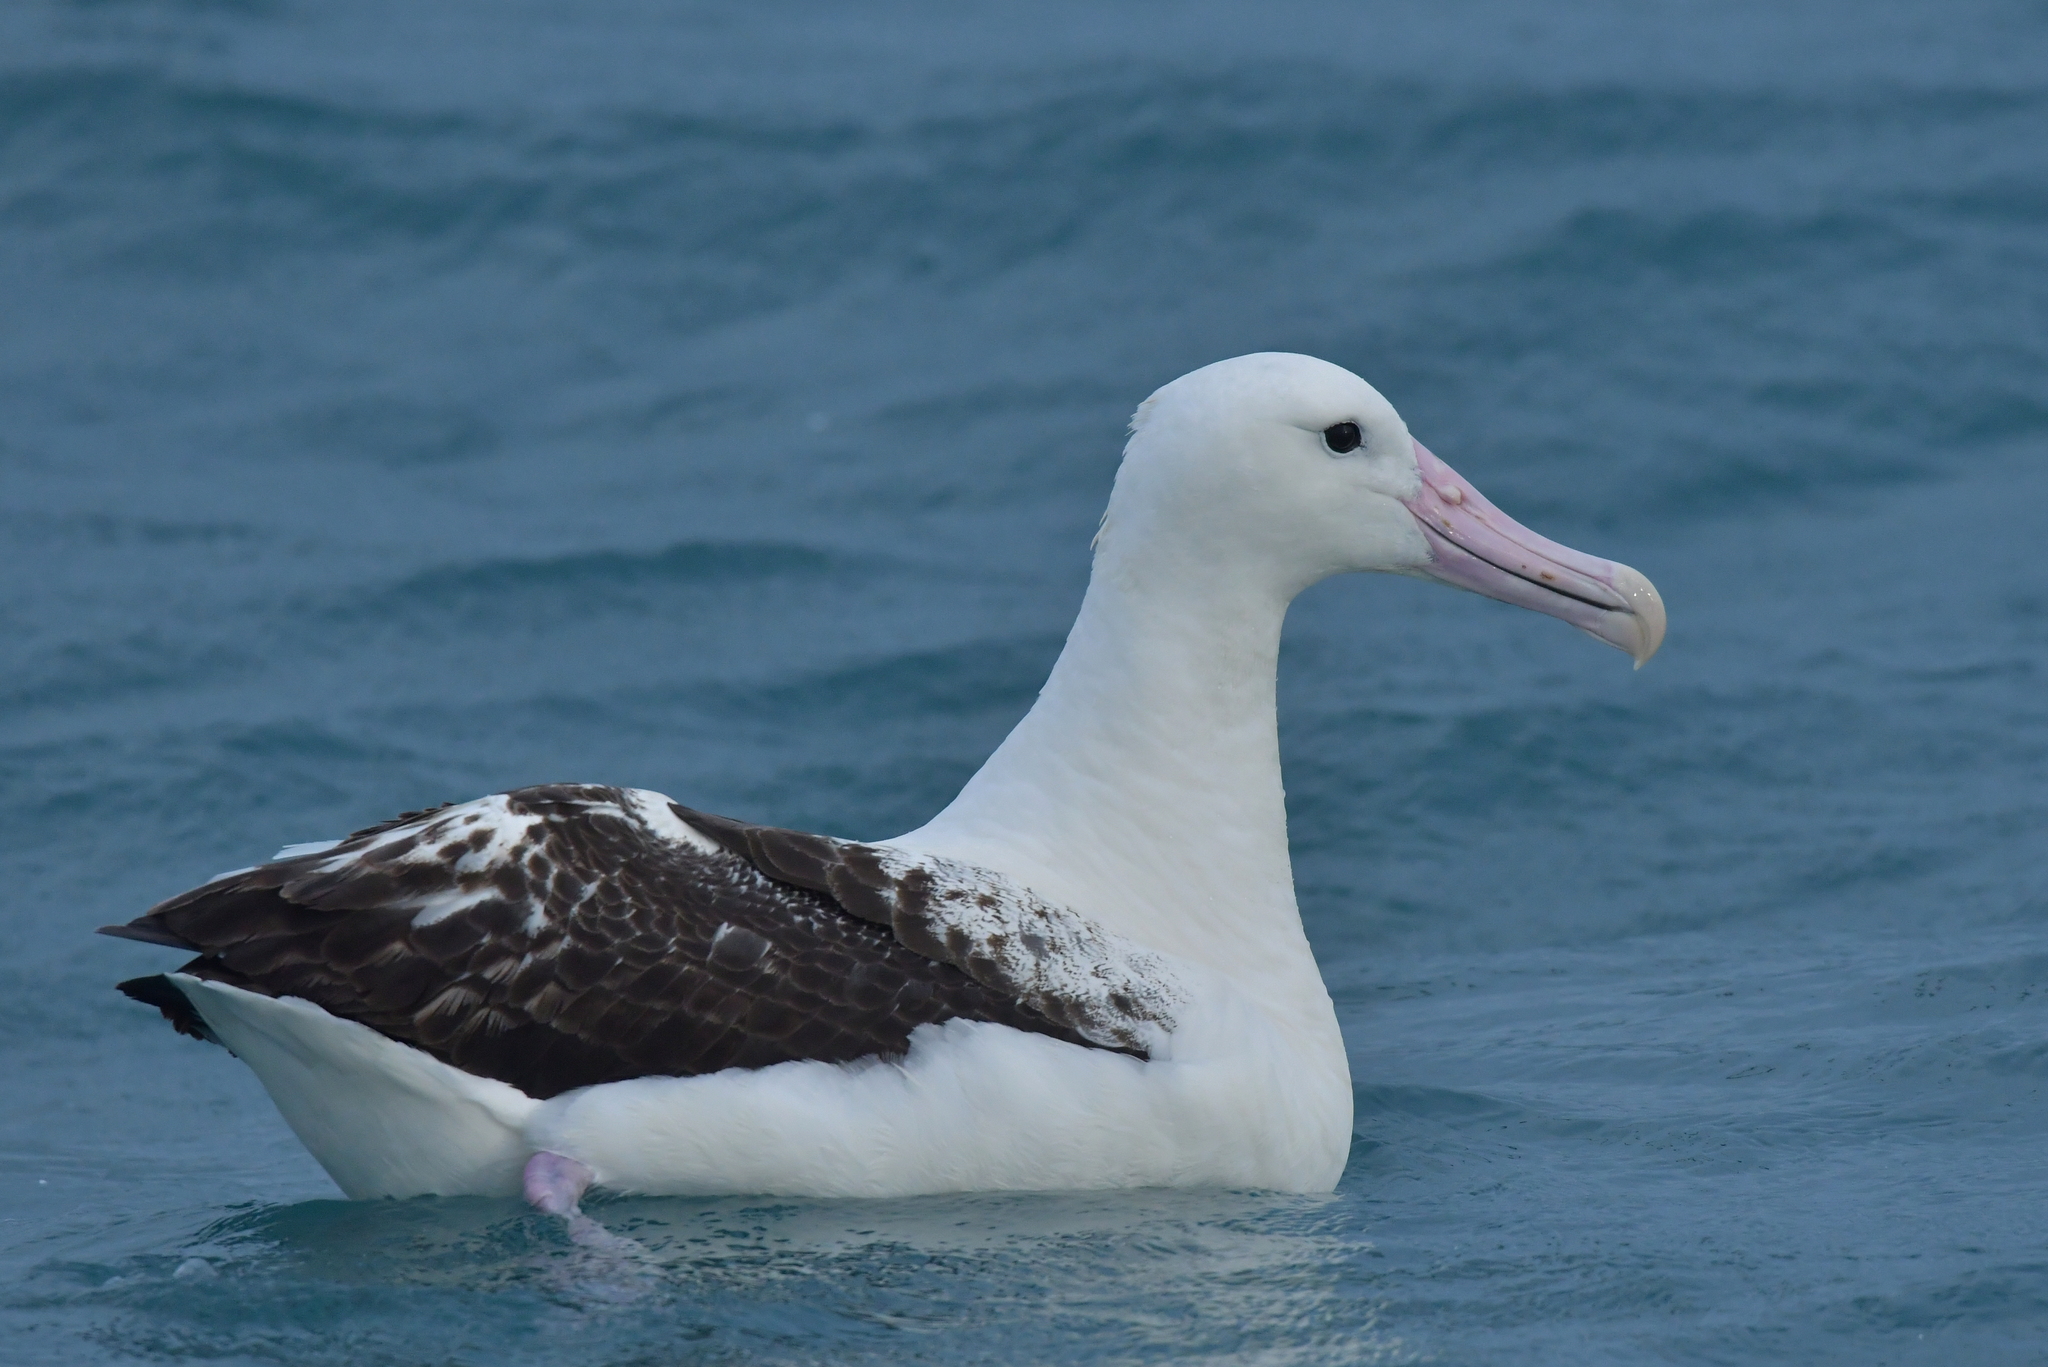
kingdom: Animalia
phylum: Chordata
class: Aves
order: Procellariiformes
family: Diomedeidae
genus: Diomedea
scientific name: Diomedea epomophora
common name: Southern royal albatross
